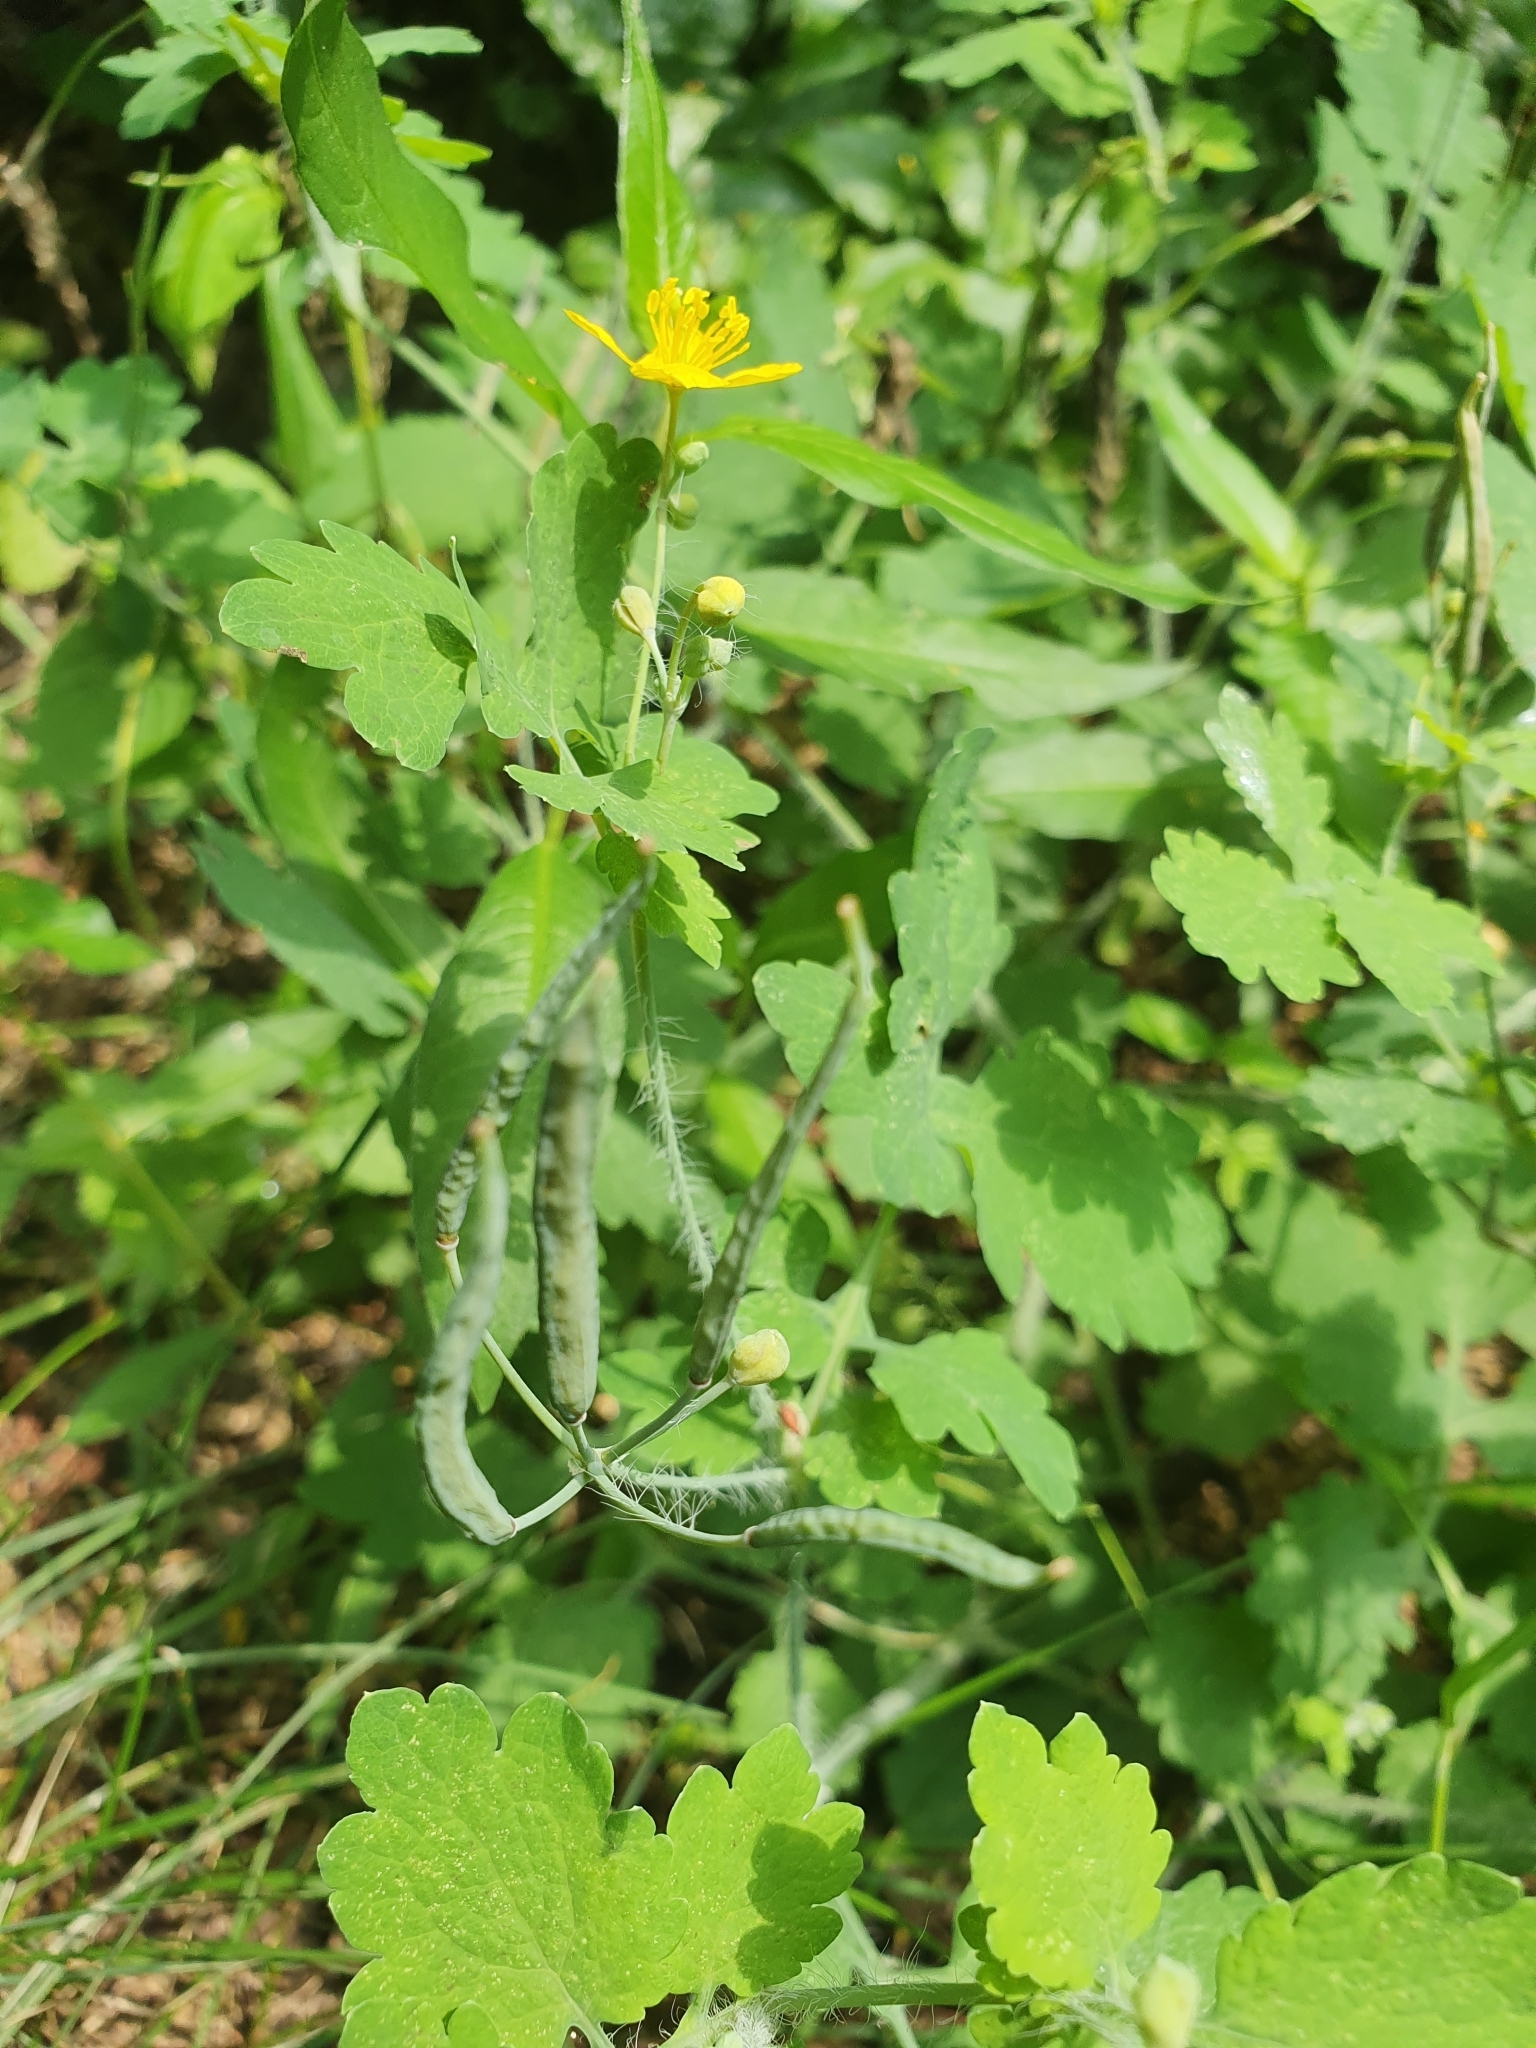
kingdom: Plantae
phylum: Tracheophyta
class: Magnoliopsida
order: Ranunculales
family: Papaveraceae
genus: Chelidonium
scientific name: Chelidonium majus
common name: Greater celandine
